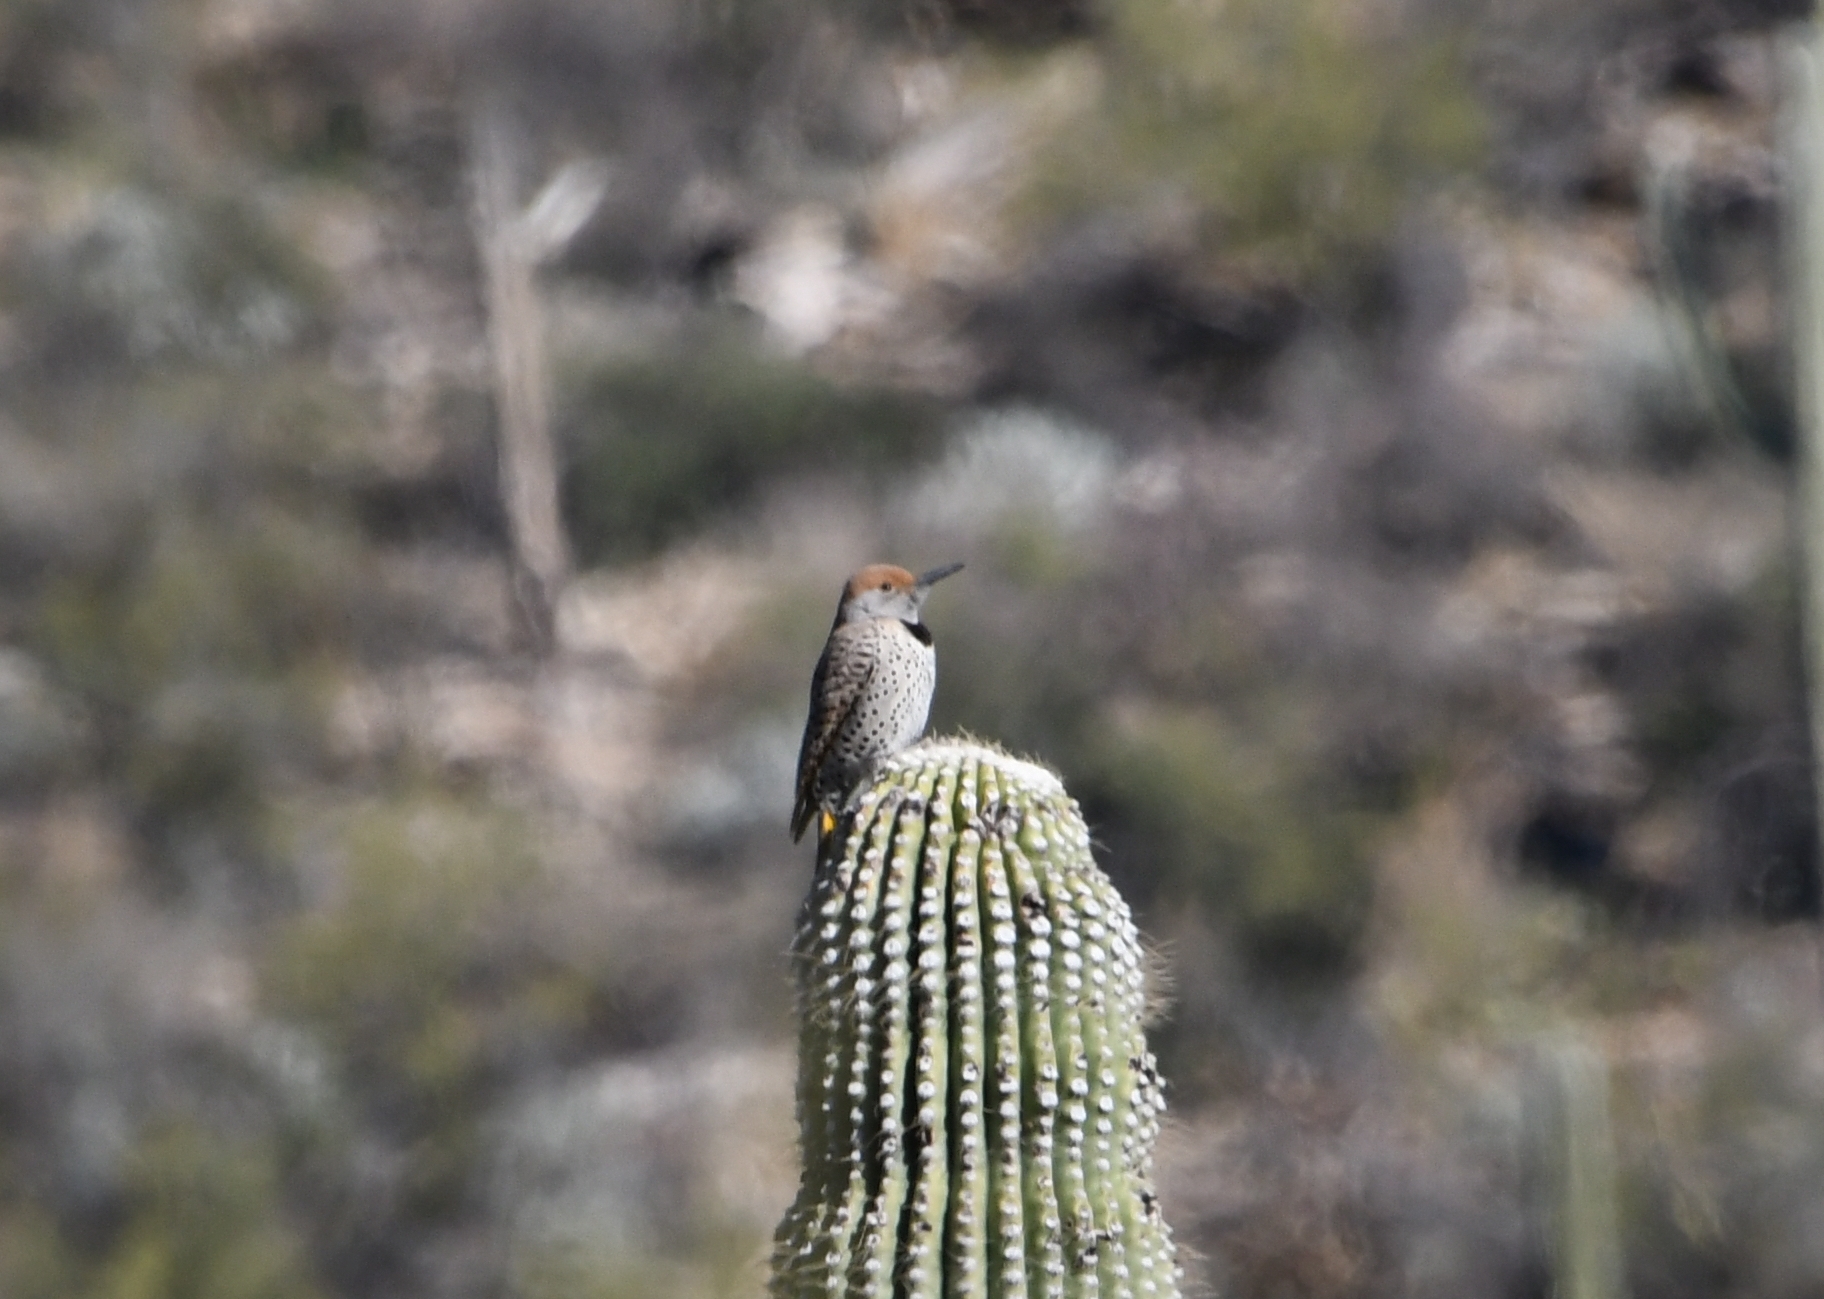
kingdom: Animalia
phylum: Chordata
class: Aves
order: Piciformes
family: Picidae
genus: Colaptes
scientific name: Colaptes chrysoides
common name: Gilded flicker
